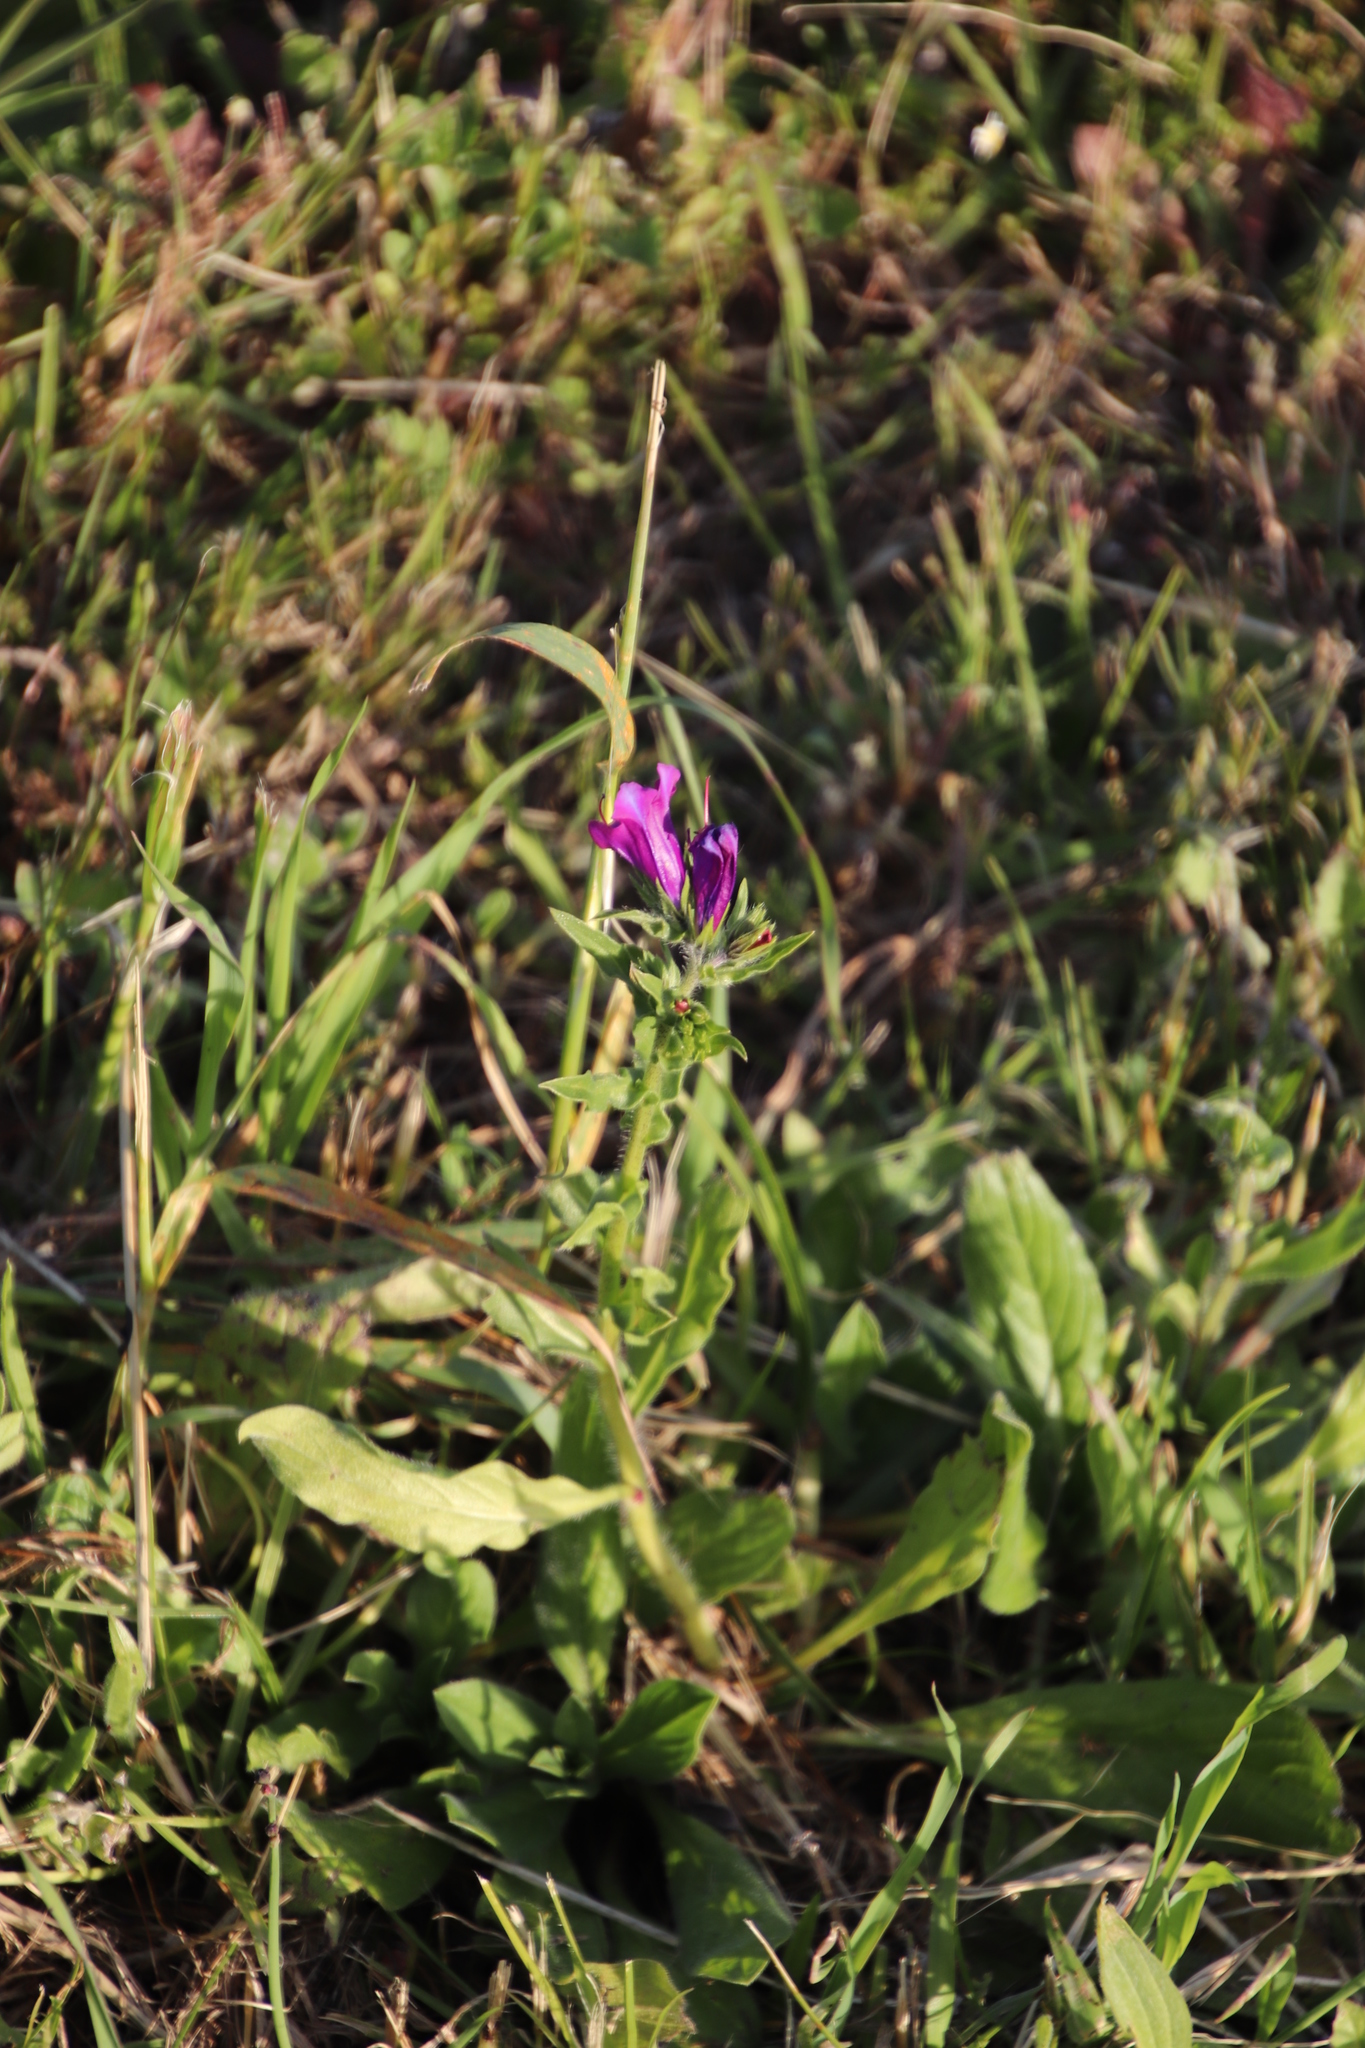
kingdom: Plantae
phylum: Tracheophyta
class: Magnoliopsida
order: Boraginales
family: Boraginaceae
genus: Echium
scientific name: Echium plantagineum
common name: Purple viper's-bugloss
